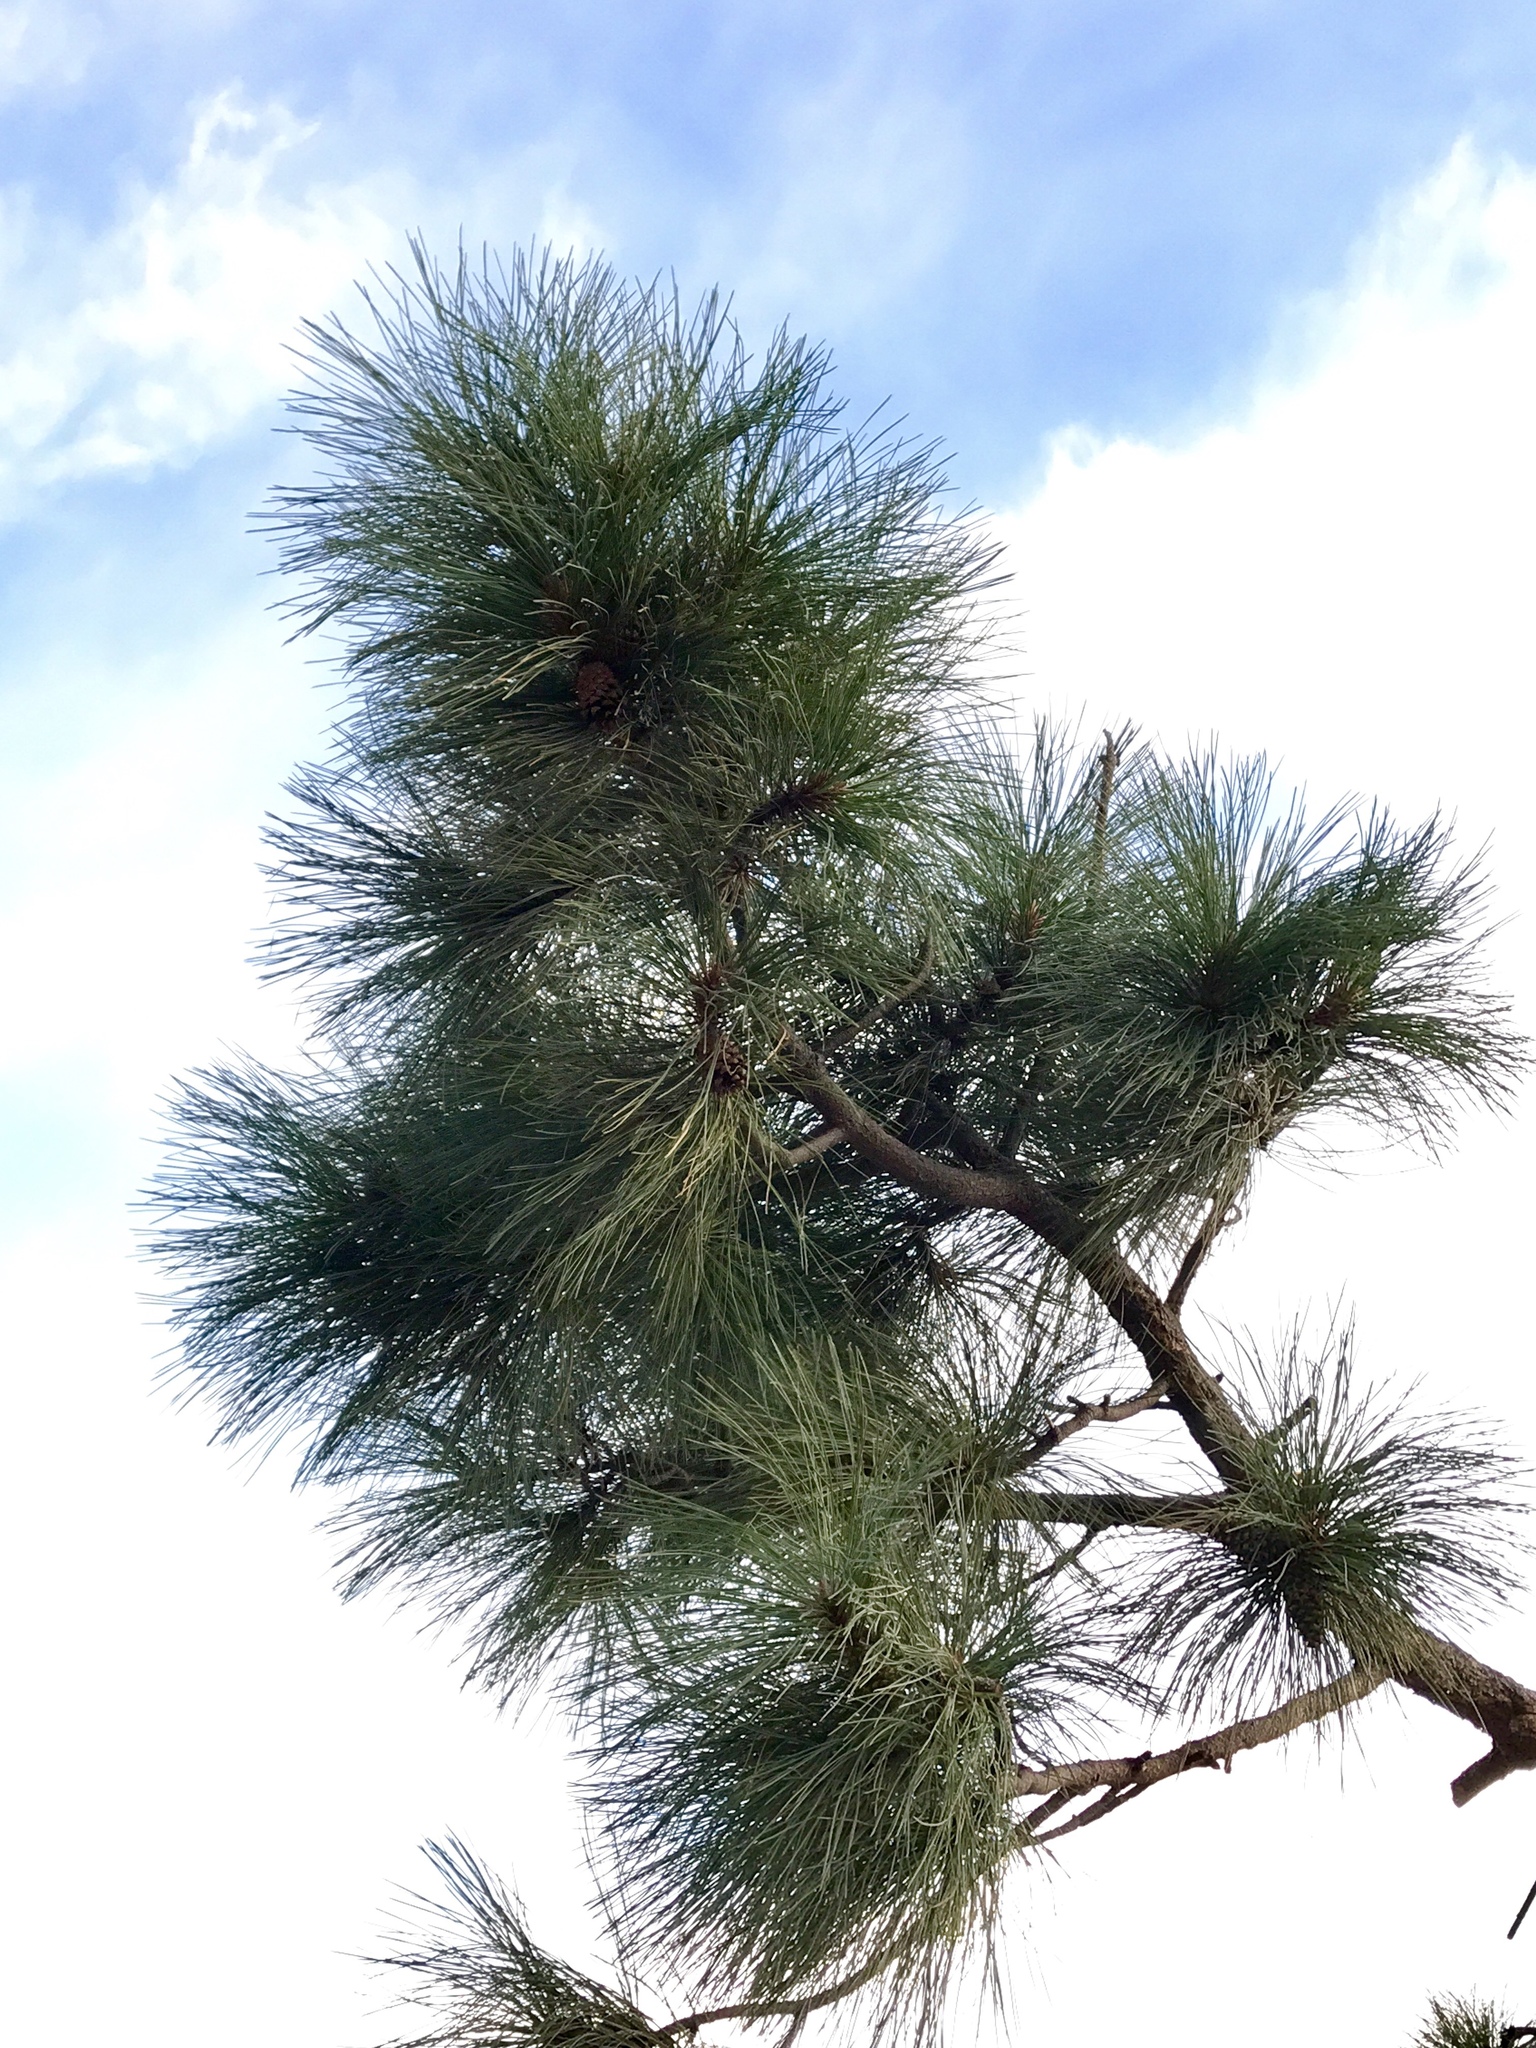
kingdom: Plantae
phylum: Tracheophyta
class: Pinopsida
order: Pinales
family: Pinaceae
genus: Pinus
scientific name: Pinus ponderosa
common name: Western yellow-pine
